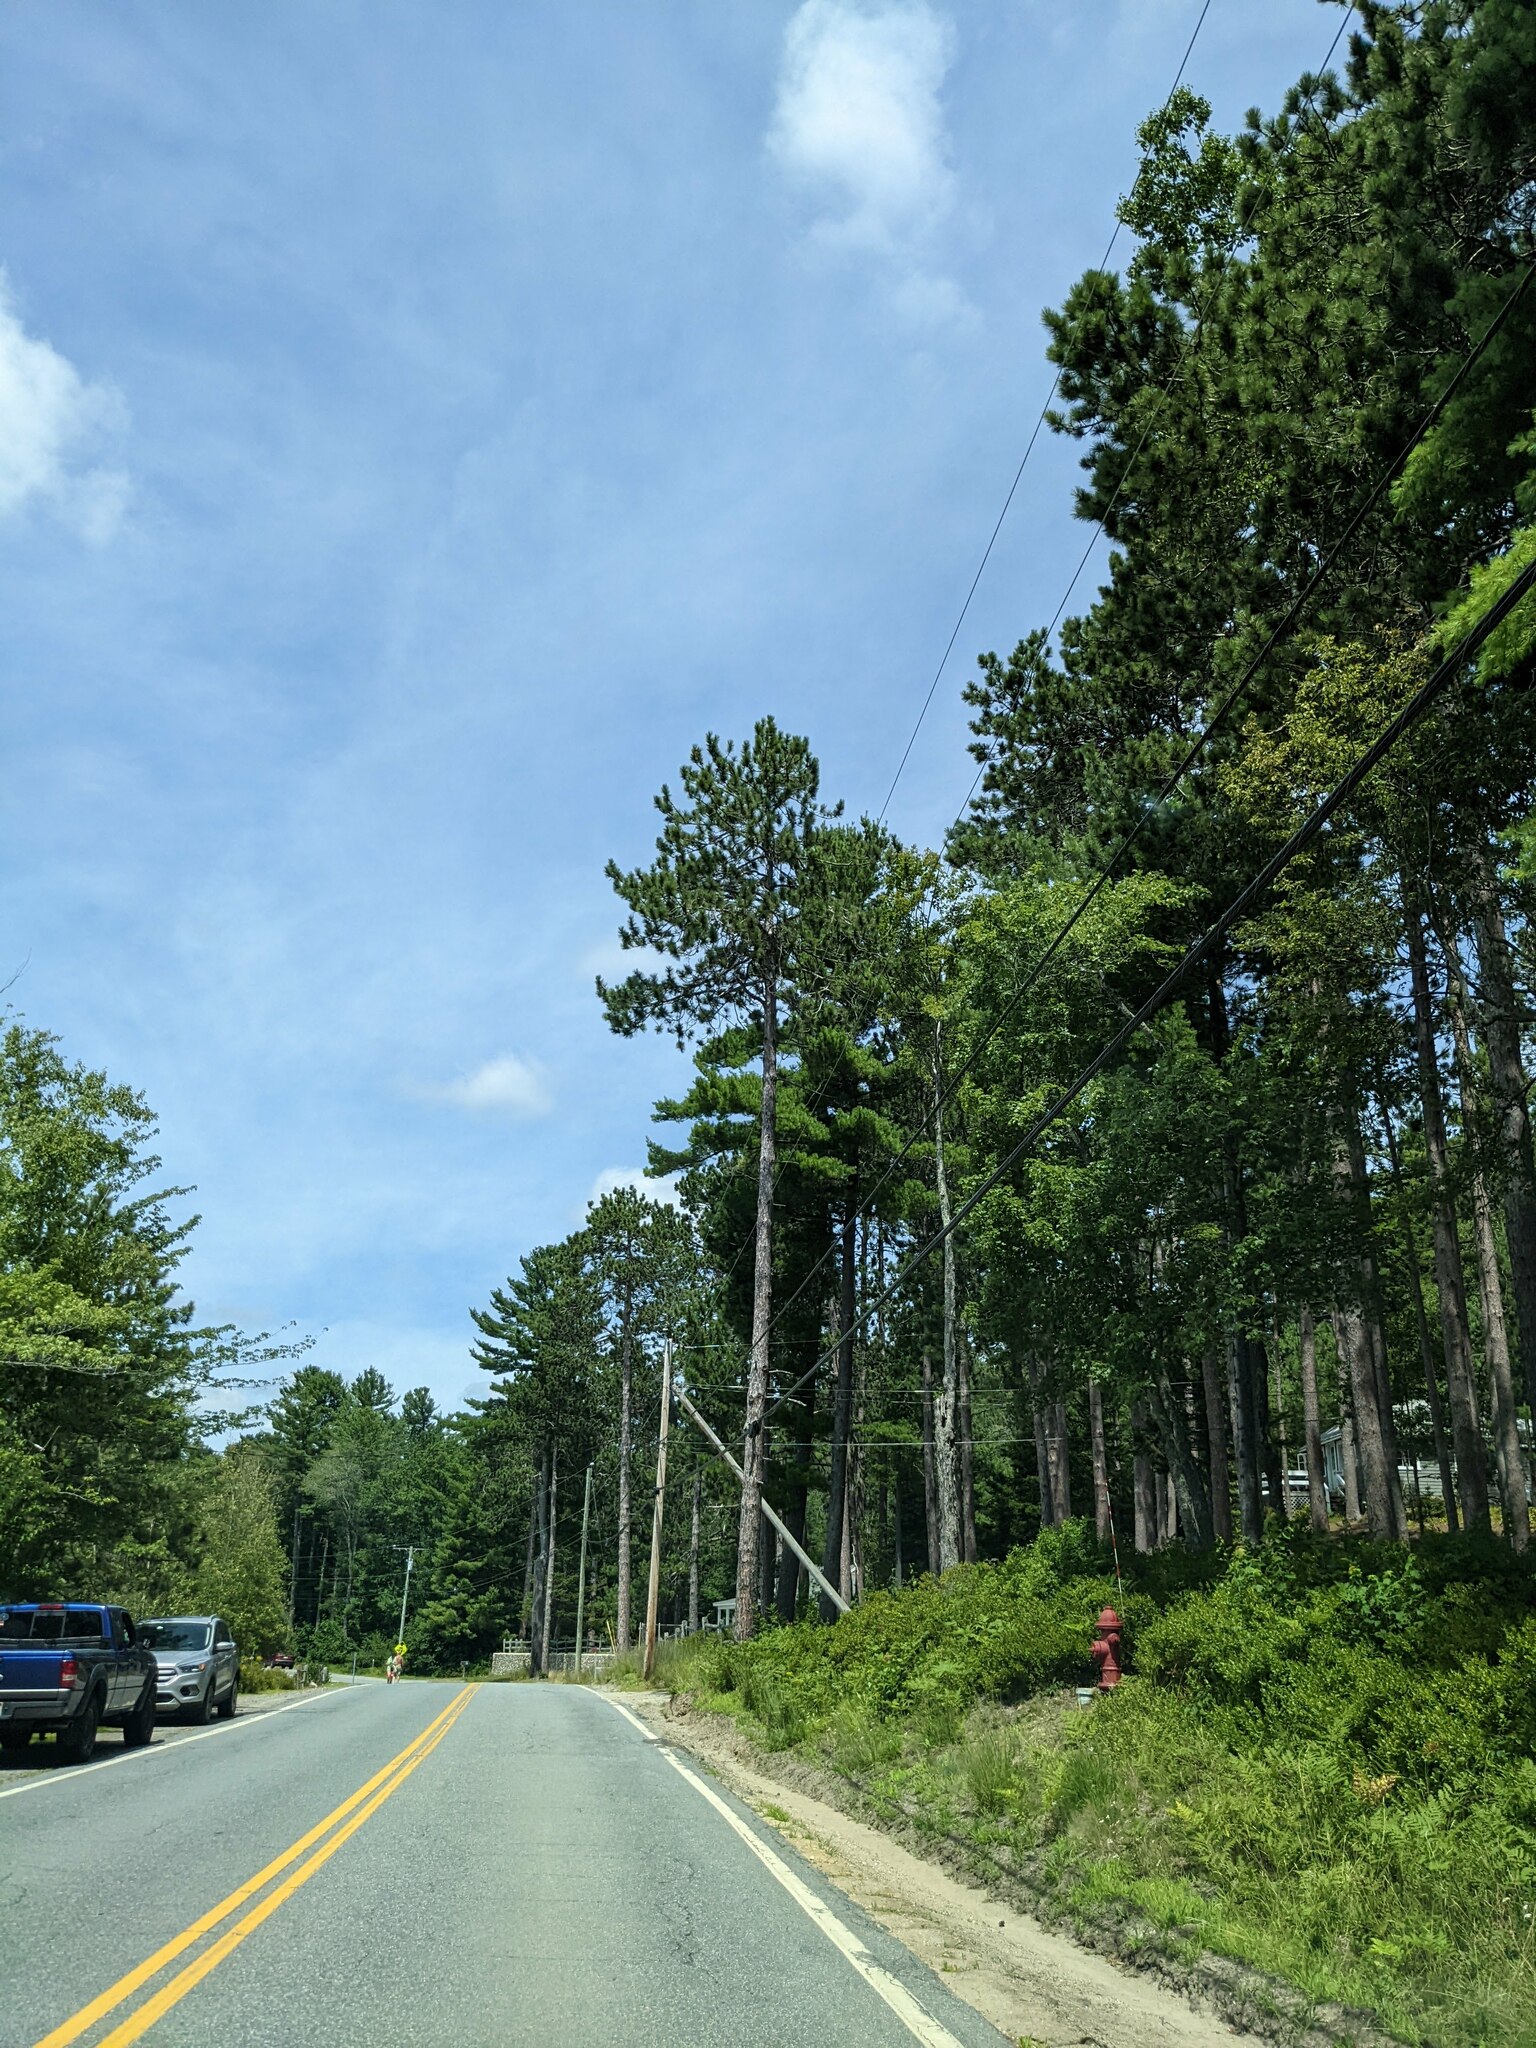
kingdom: Plantae
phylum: Tracheophyta
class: Pinopsida
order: Pinales
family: Pinaceae
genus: Pinus
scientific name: Pinus resinosa
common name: Norway pine
